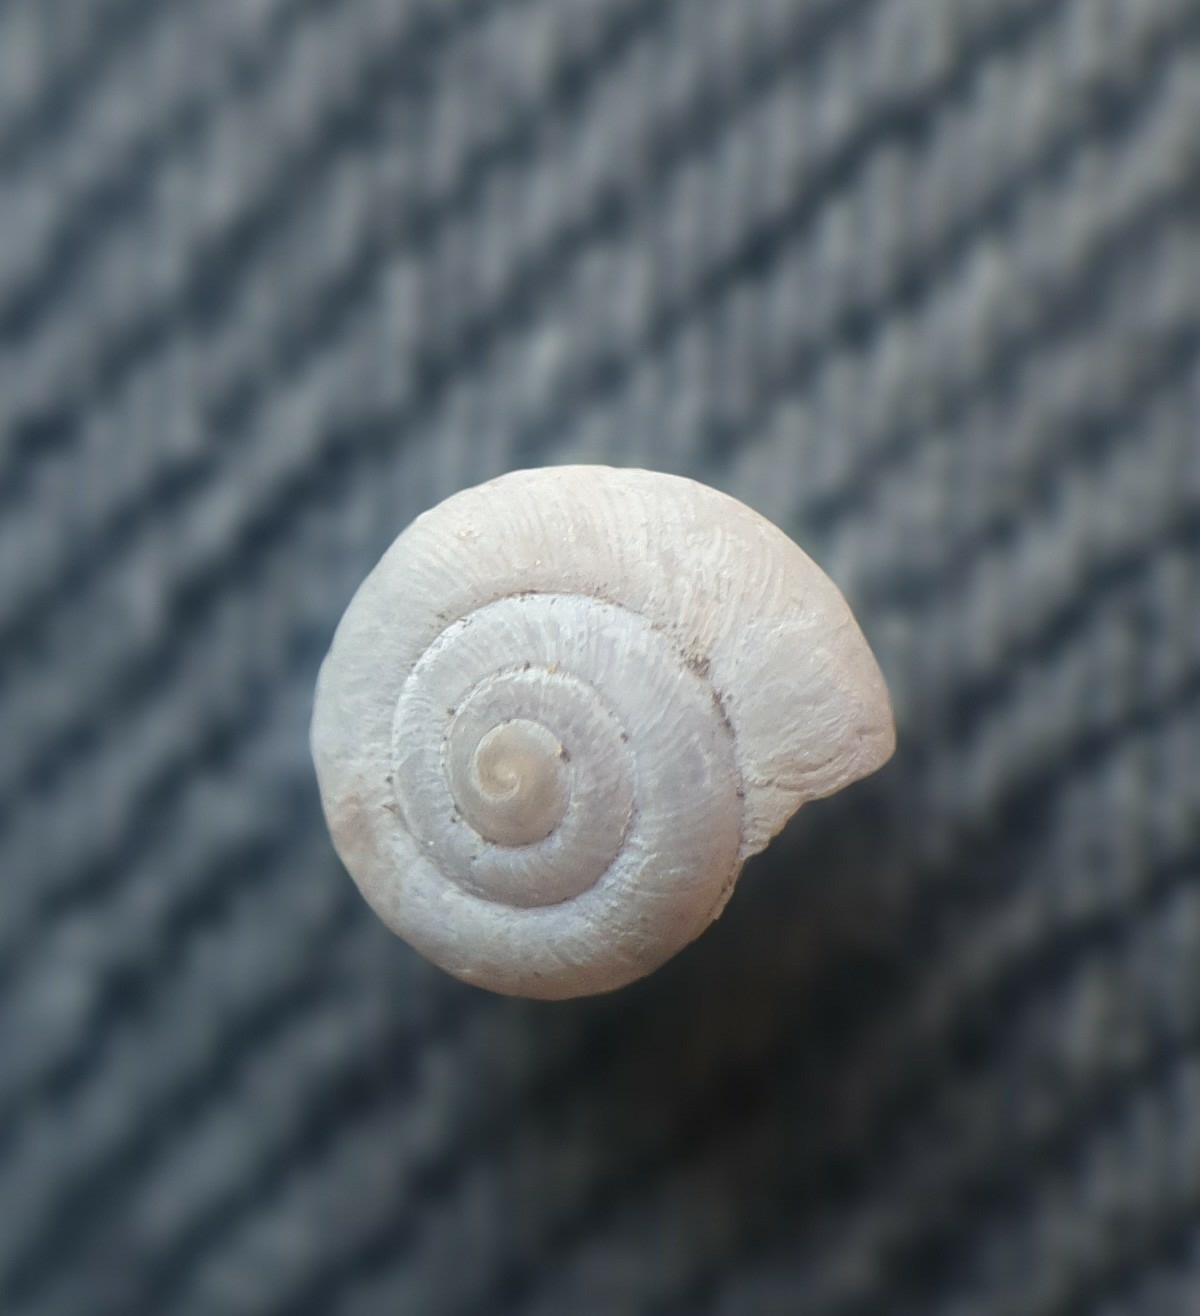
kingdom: Animalia
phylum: Mollusca
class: Gastropoda
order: Stylommatophora
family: Geomitridae
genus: Xeroplexa
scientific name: Xeroplexa intersecta
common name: Wrinkled snail
